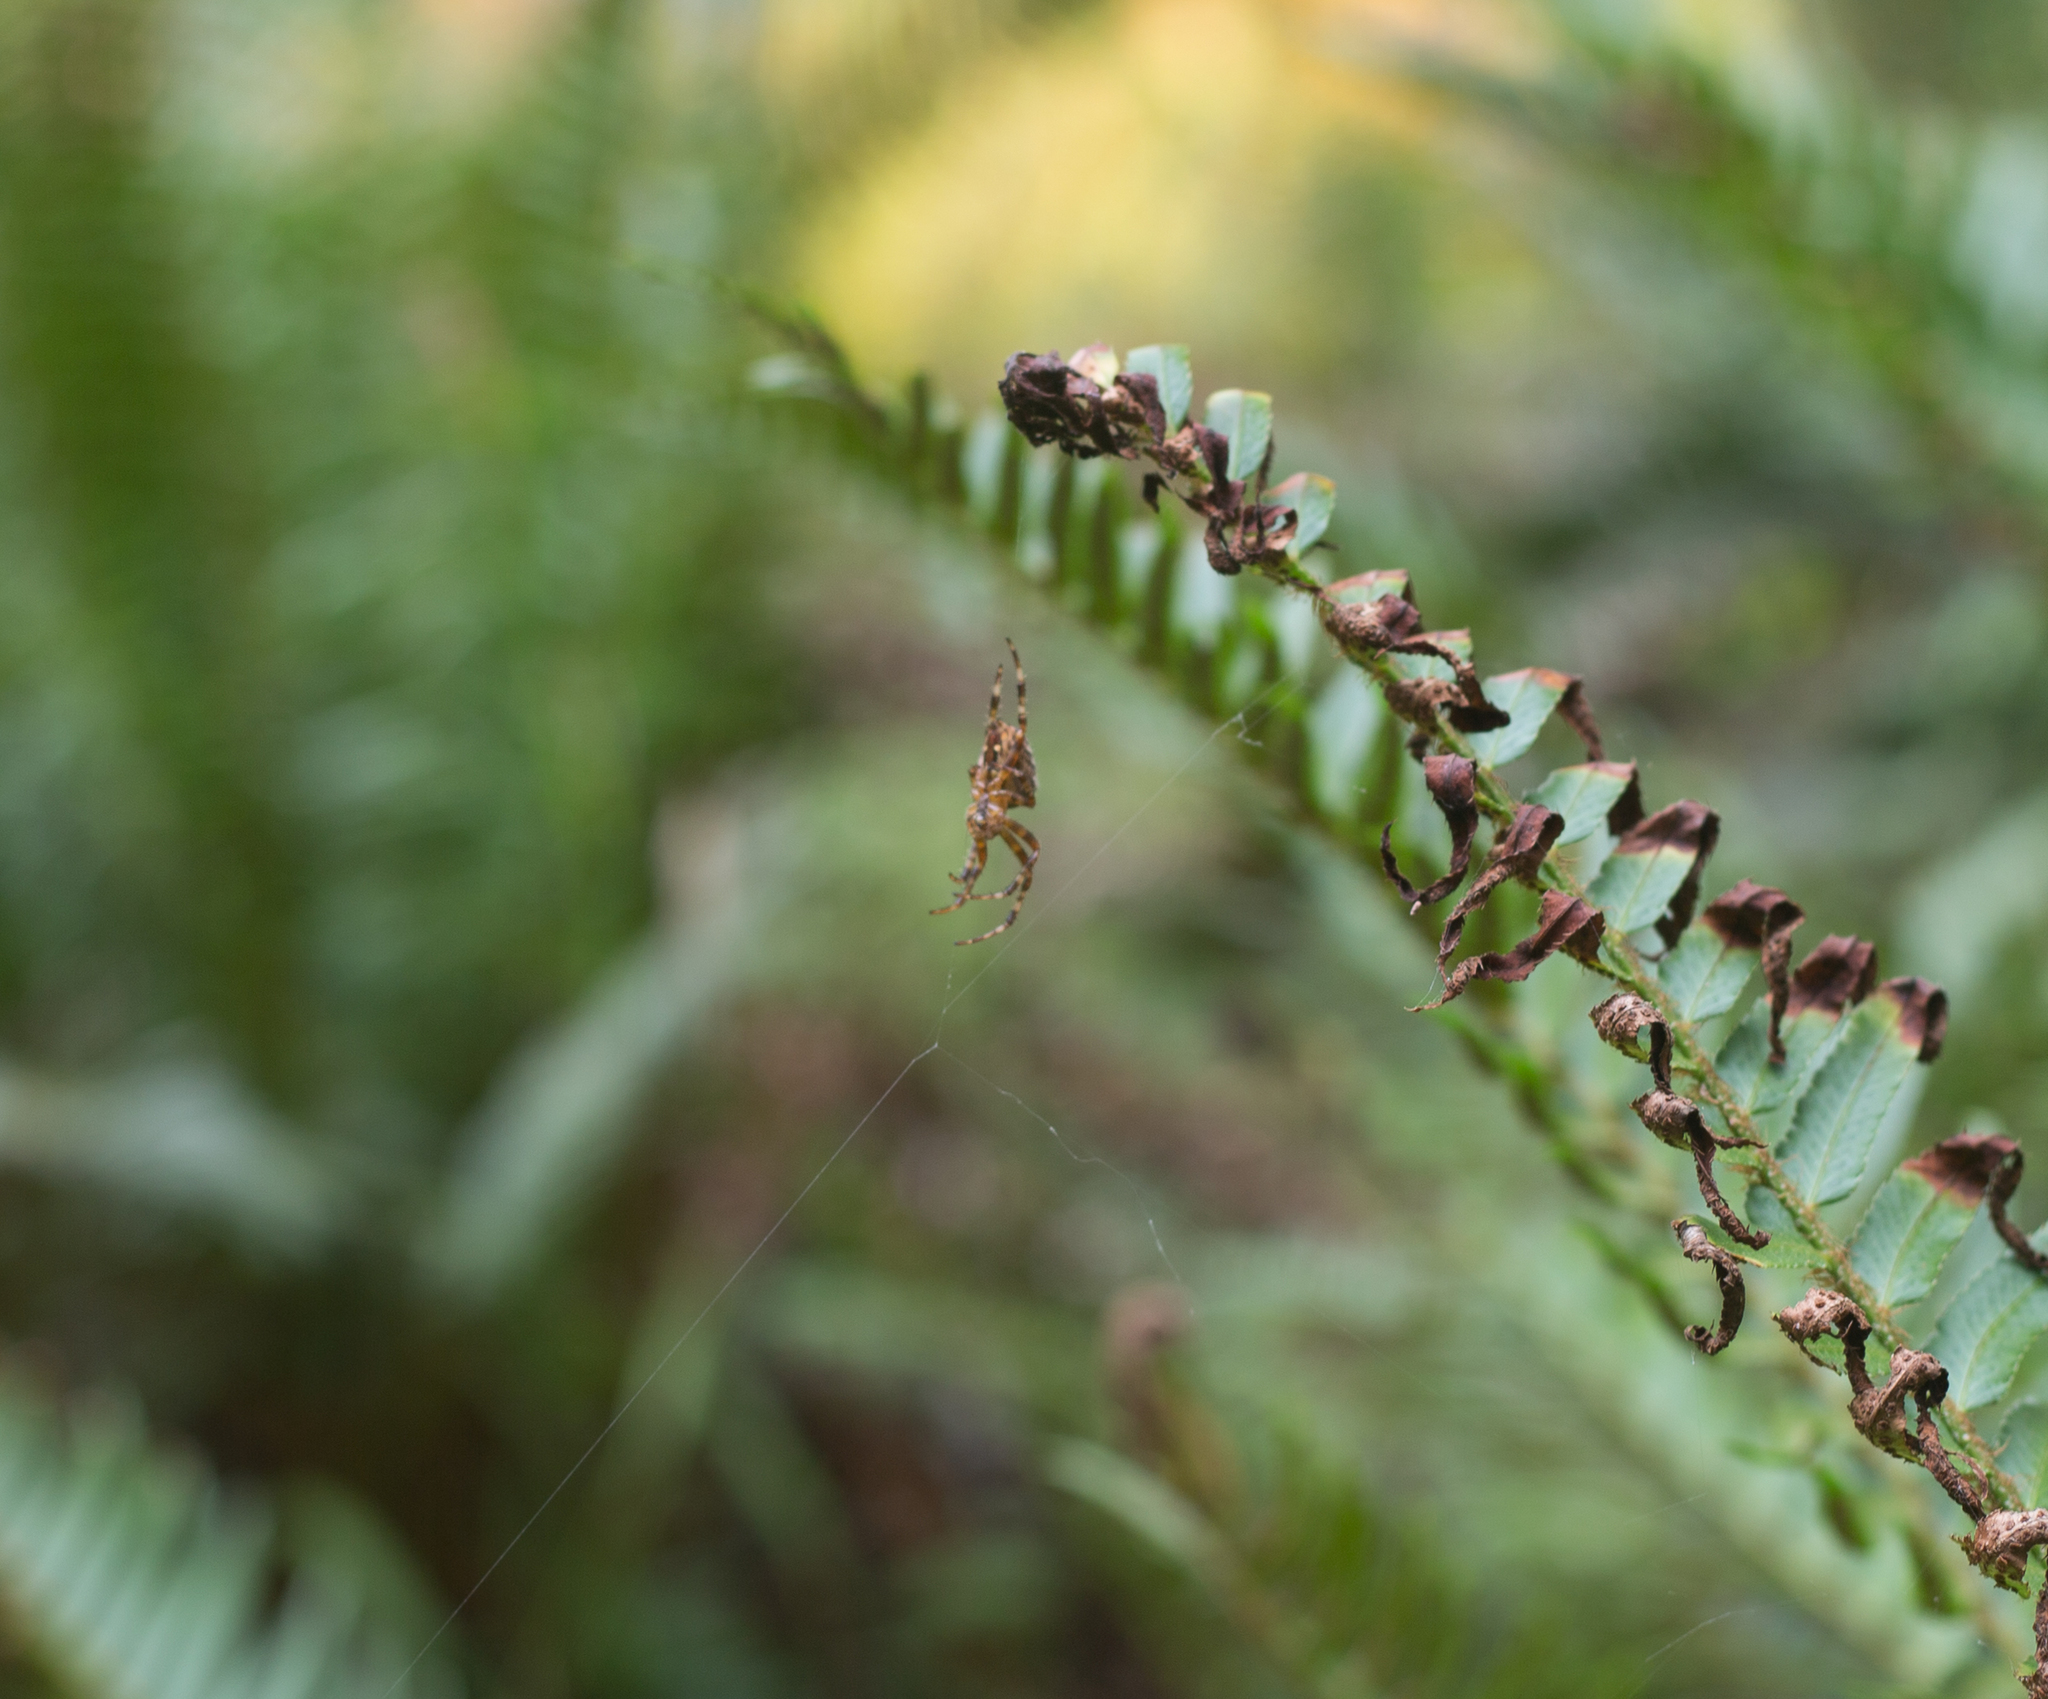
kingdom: Animalia
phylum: Arthropoda
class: Arachnida
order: Araneae
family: Araneidae
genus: Araneus
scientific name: Araneus diadematus
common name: Cross orbweaver
